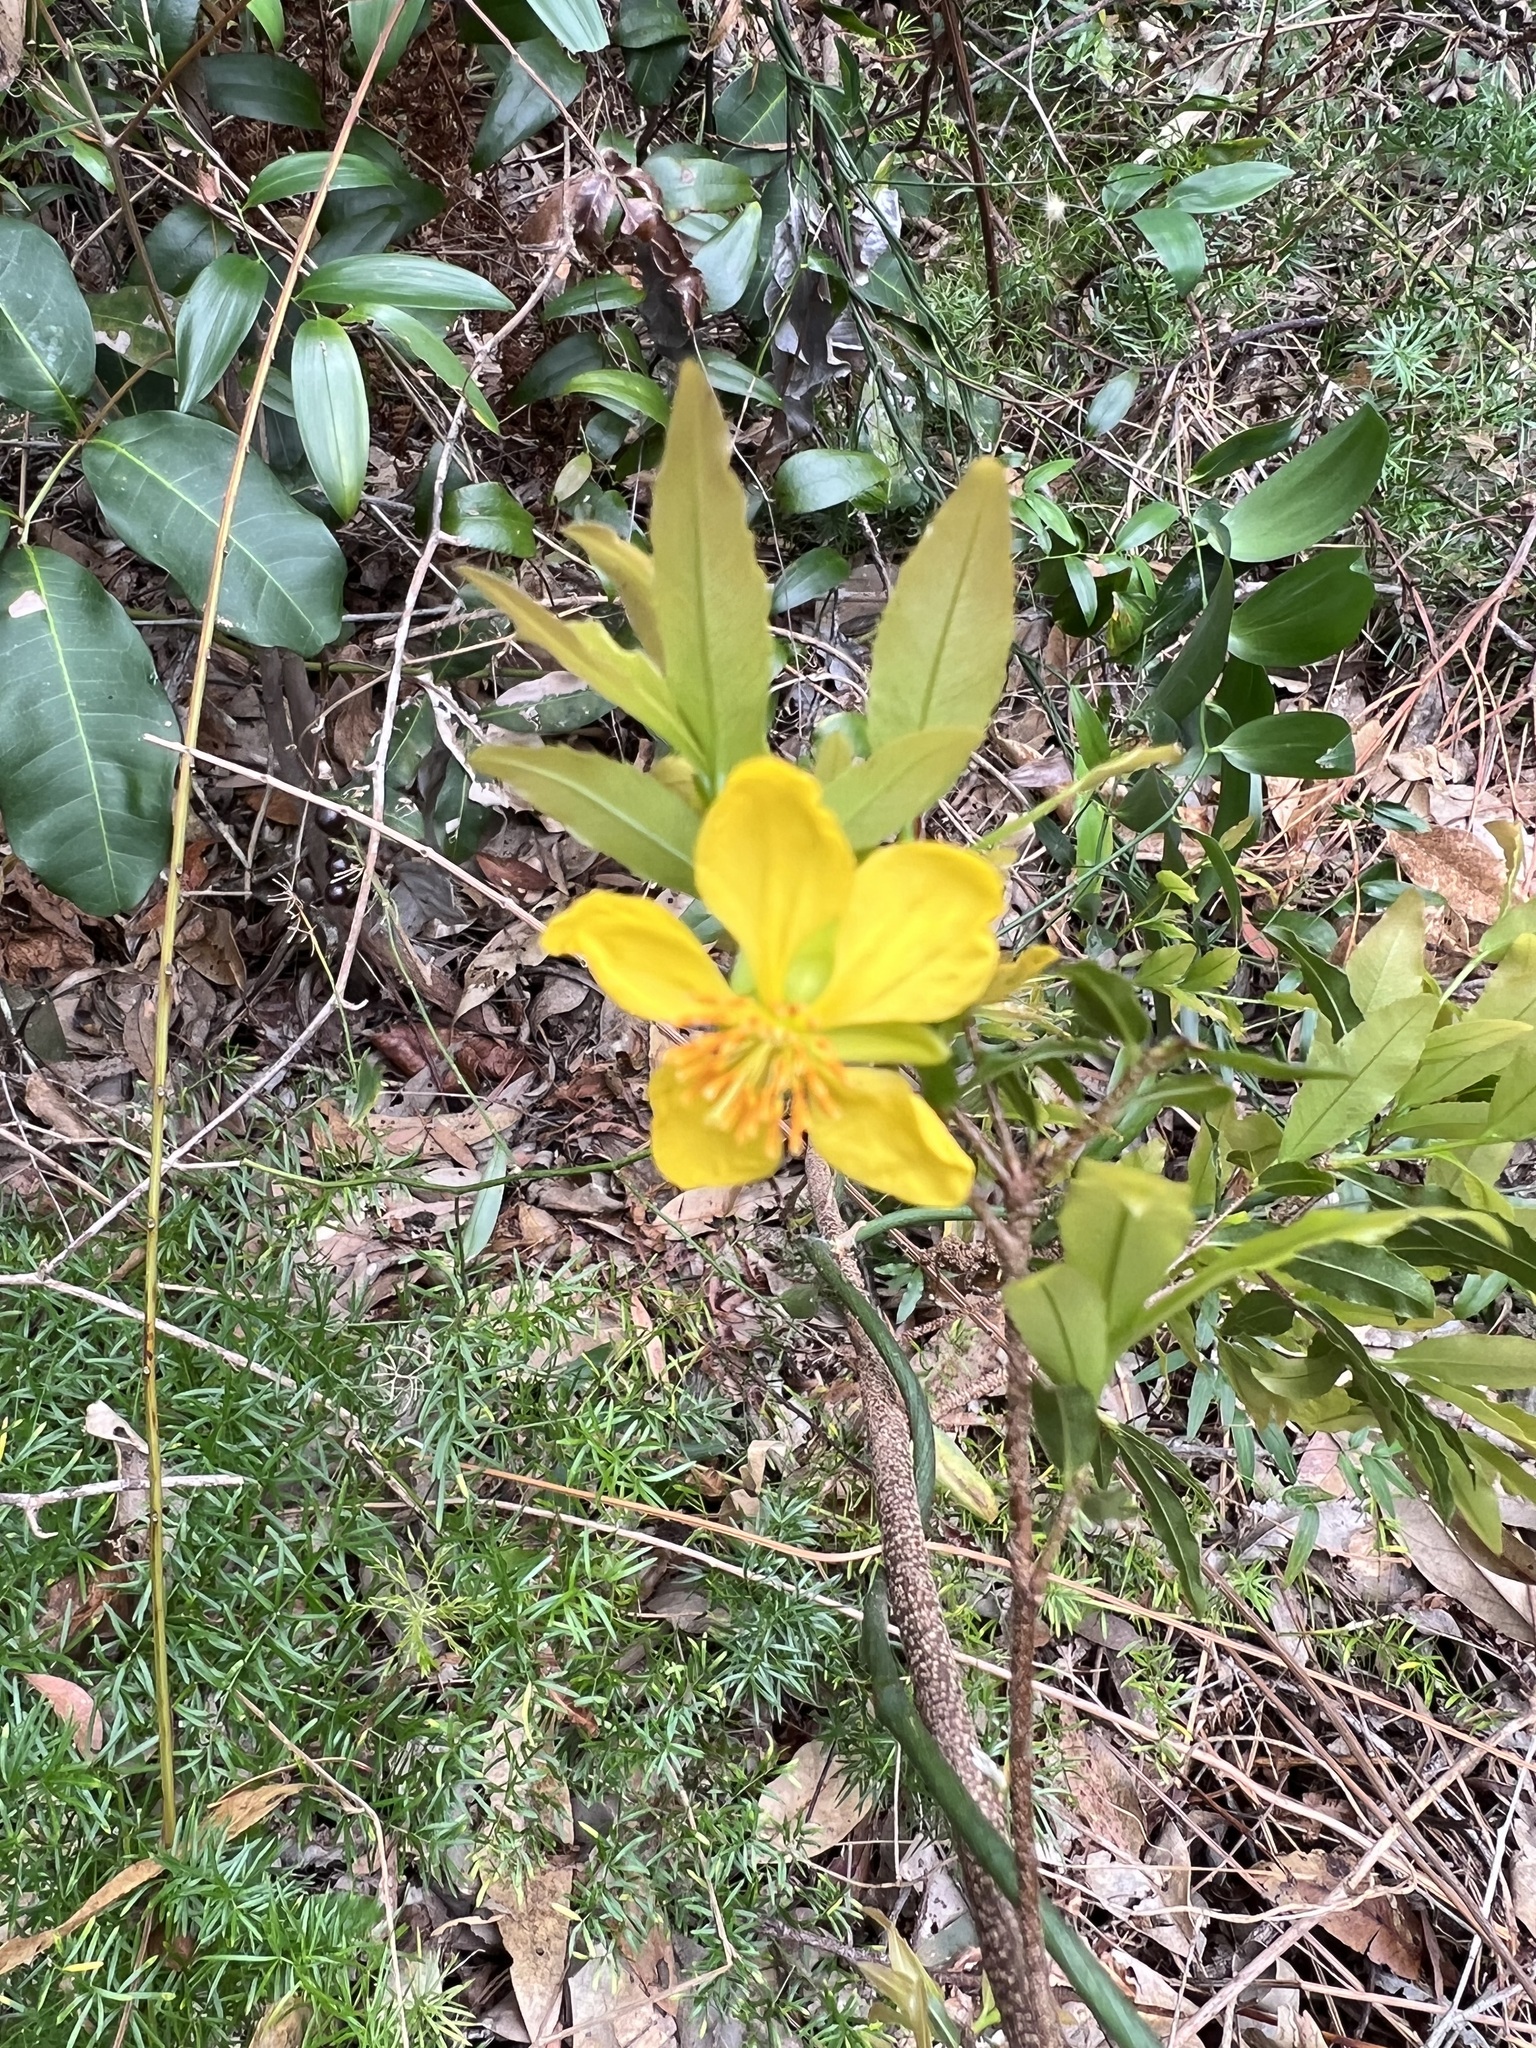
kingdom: Plantae
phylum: Tracheophyta
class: Magnoliopsida
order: Malpighiales
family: Ochnaceae
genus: Ochna
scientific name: Ochna serrulata
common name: Mickey mouse plant
